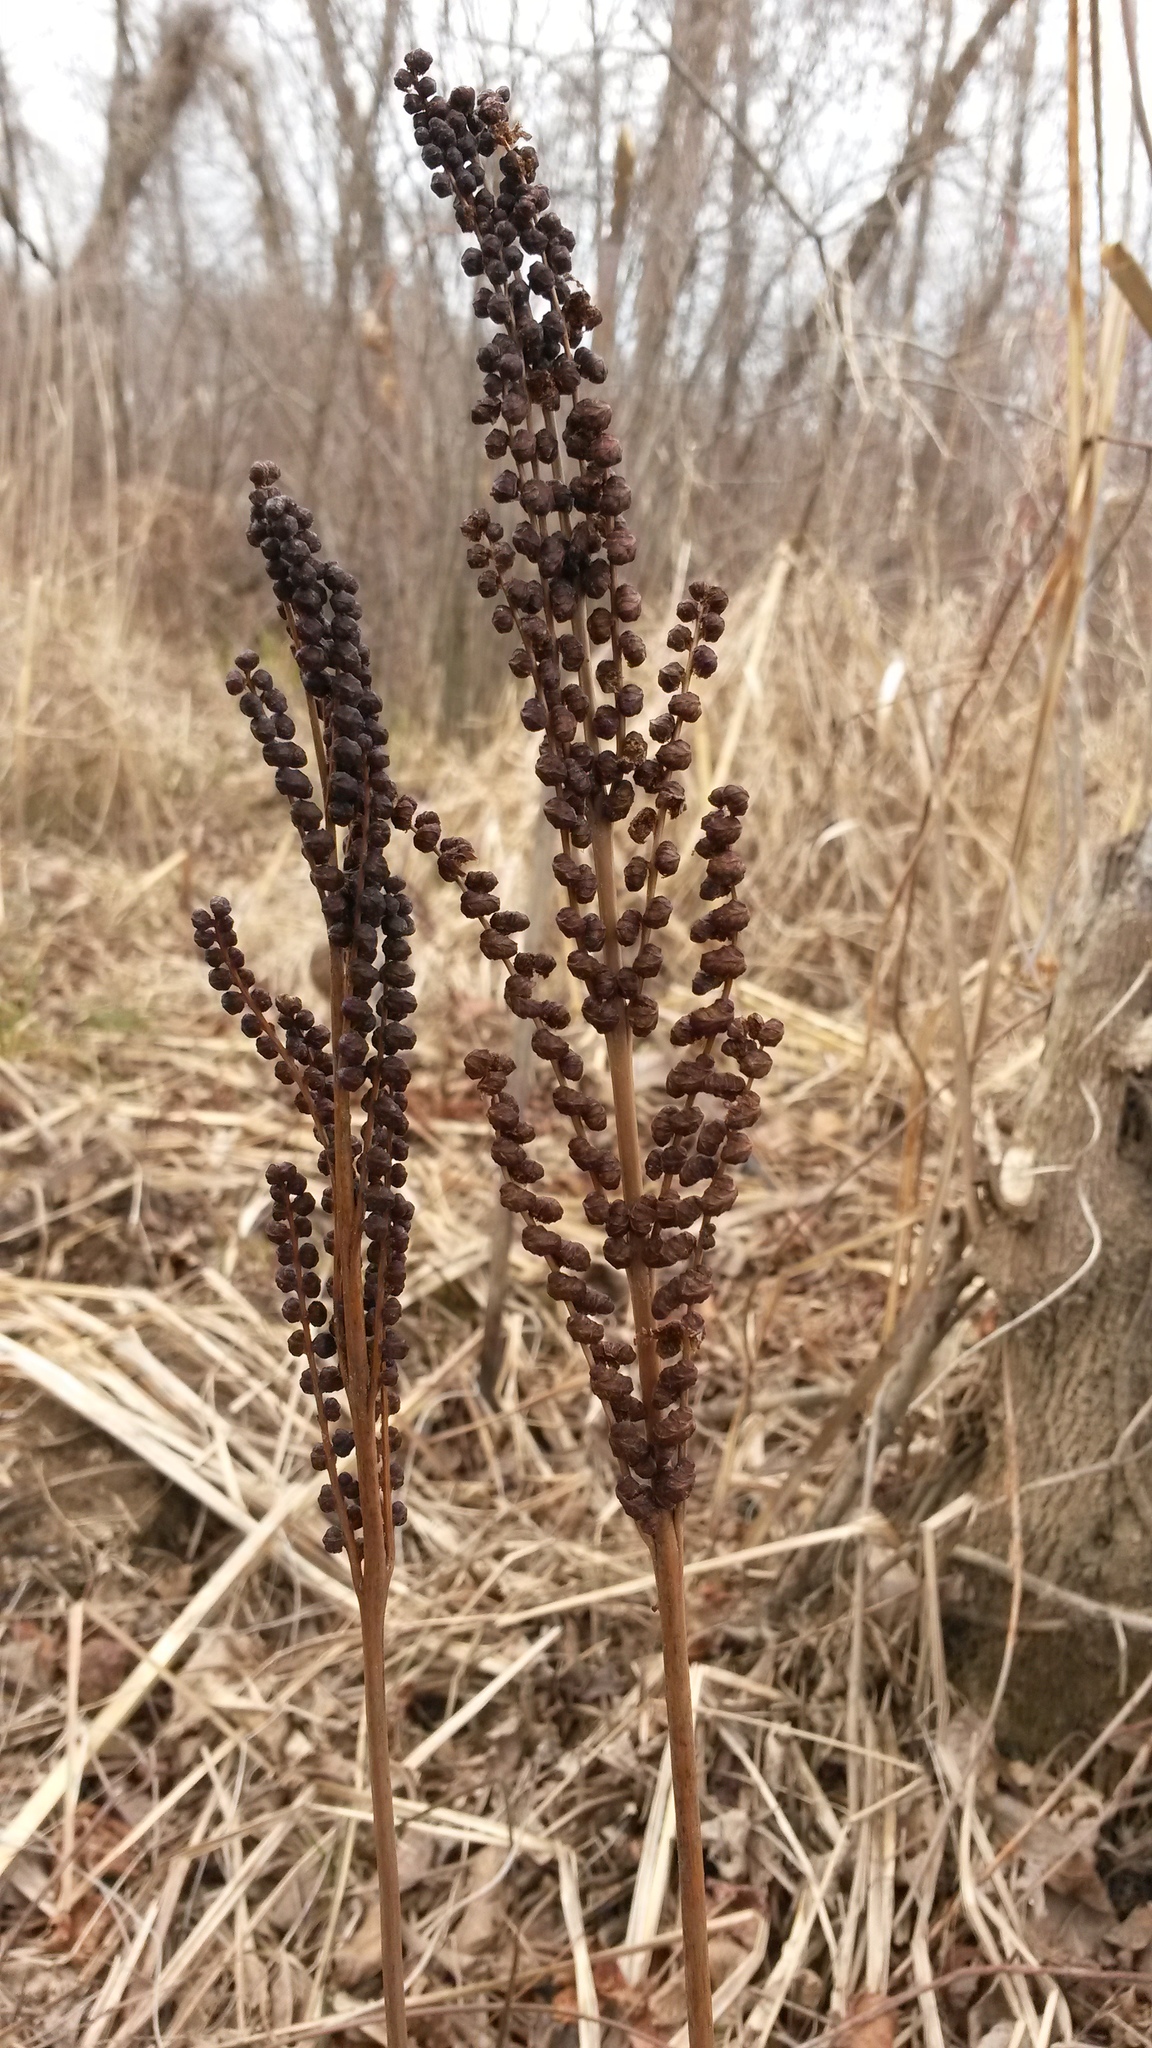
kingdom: Plantae
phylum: Tracheophyta
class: Polypodiopsida
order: Polypodiales
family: Onocleaceae
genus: Onoclea
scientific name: Onoclea sensibilis
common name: Sensitive fern
